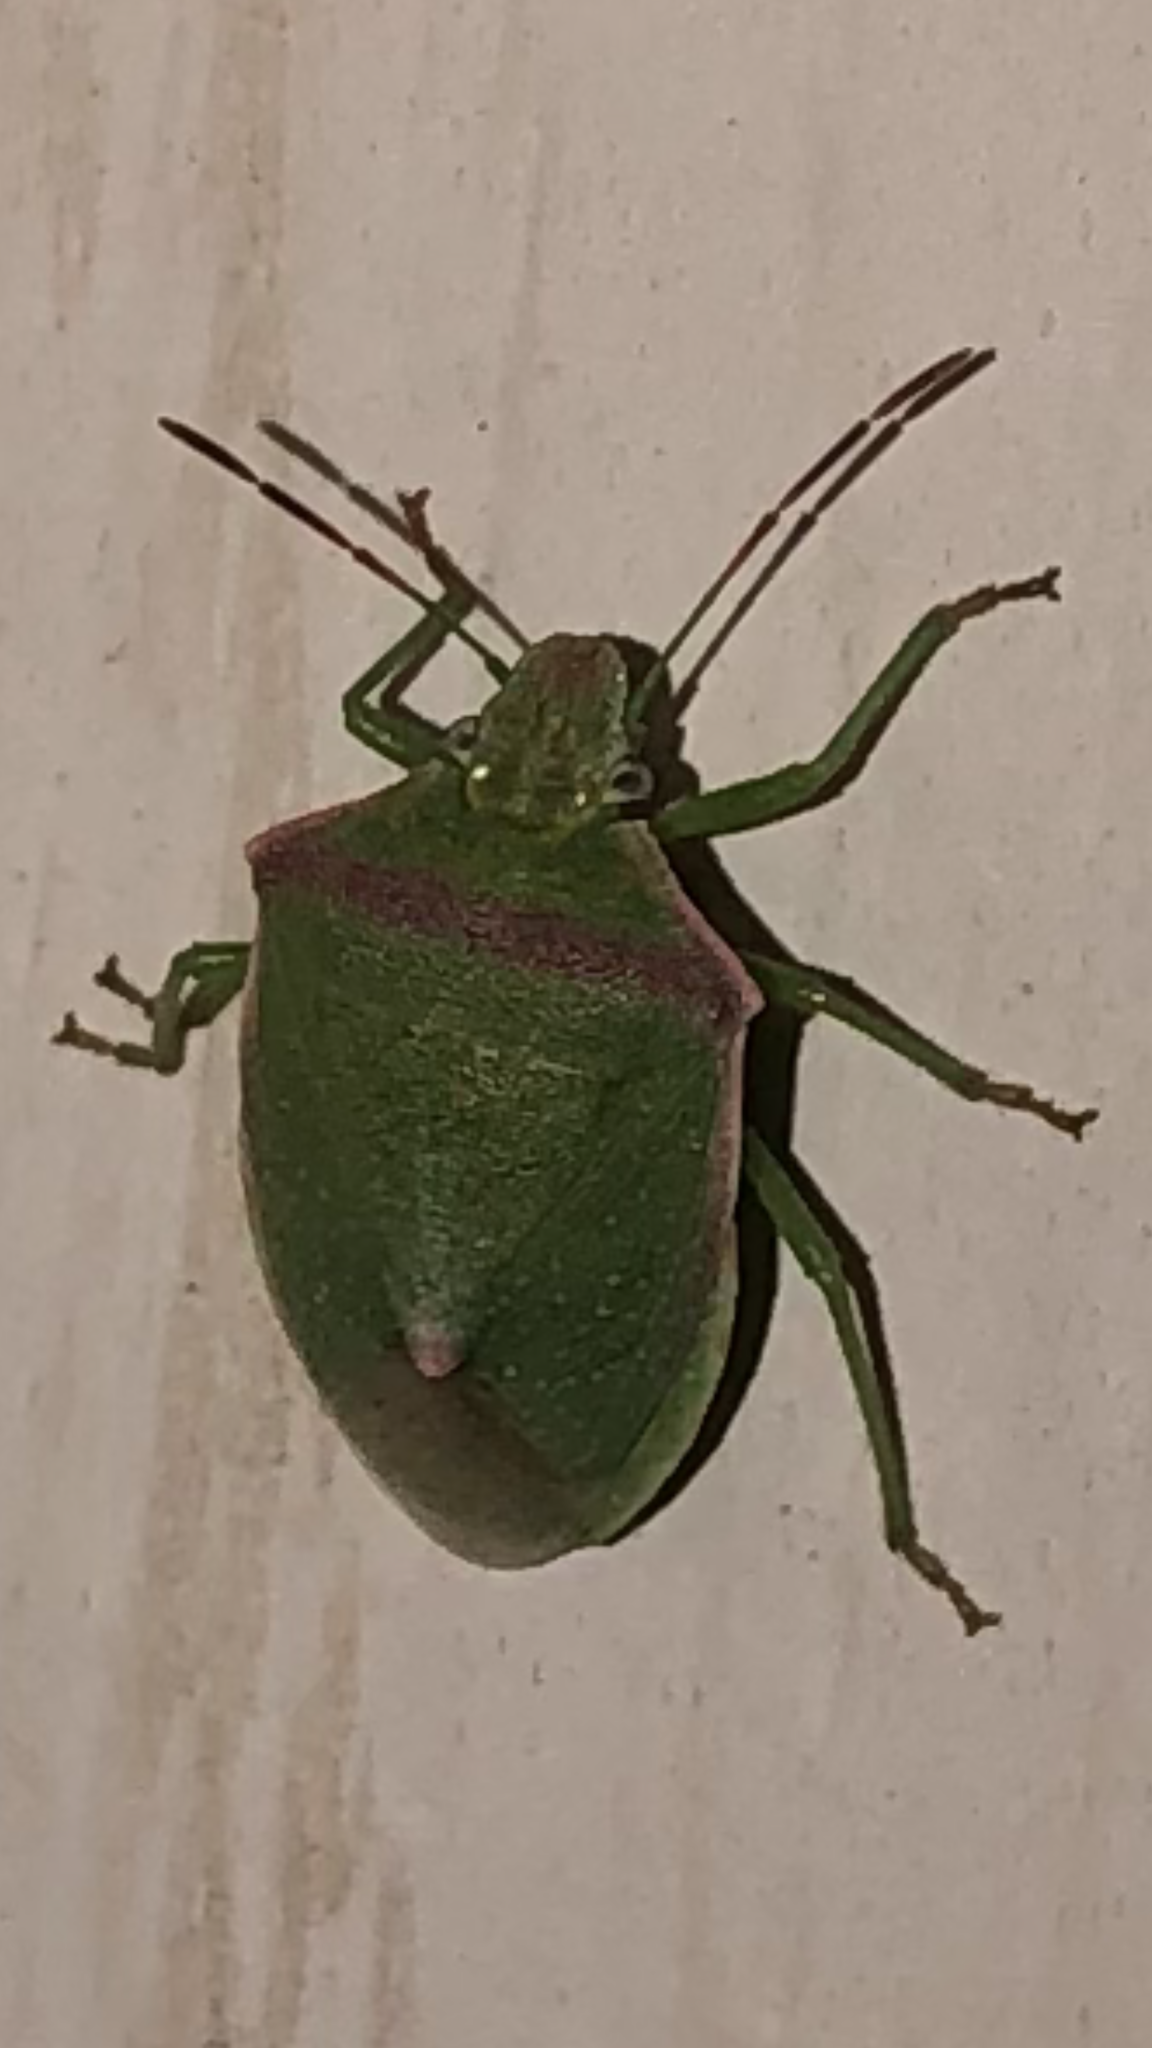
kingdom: Animalia
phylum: Arthropoda
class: Insecta
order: Hemiptera
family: Pentatomidae
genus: Thyanta
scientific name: Thyanta custator
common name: Stink bug
